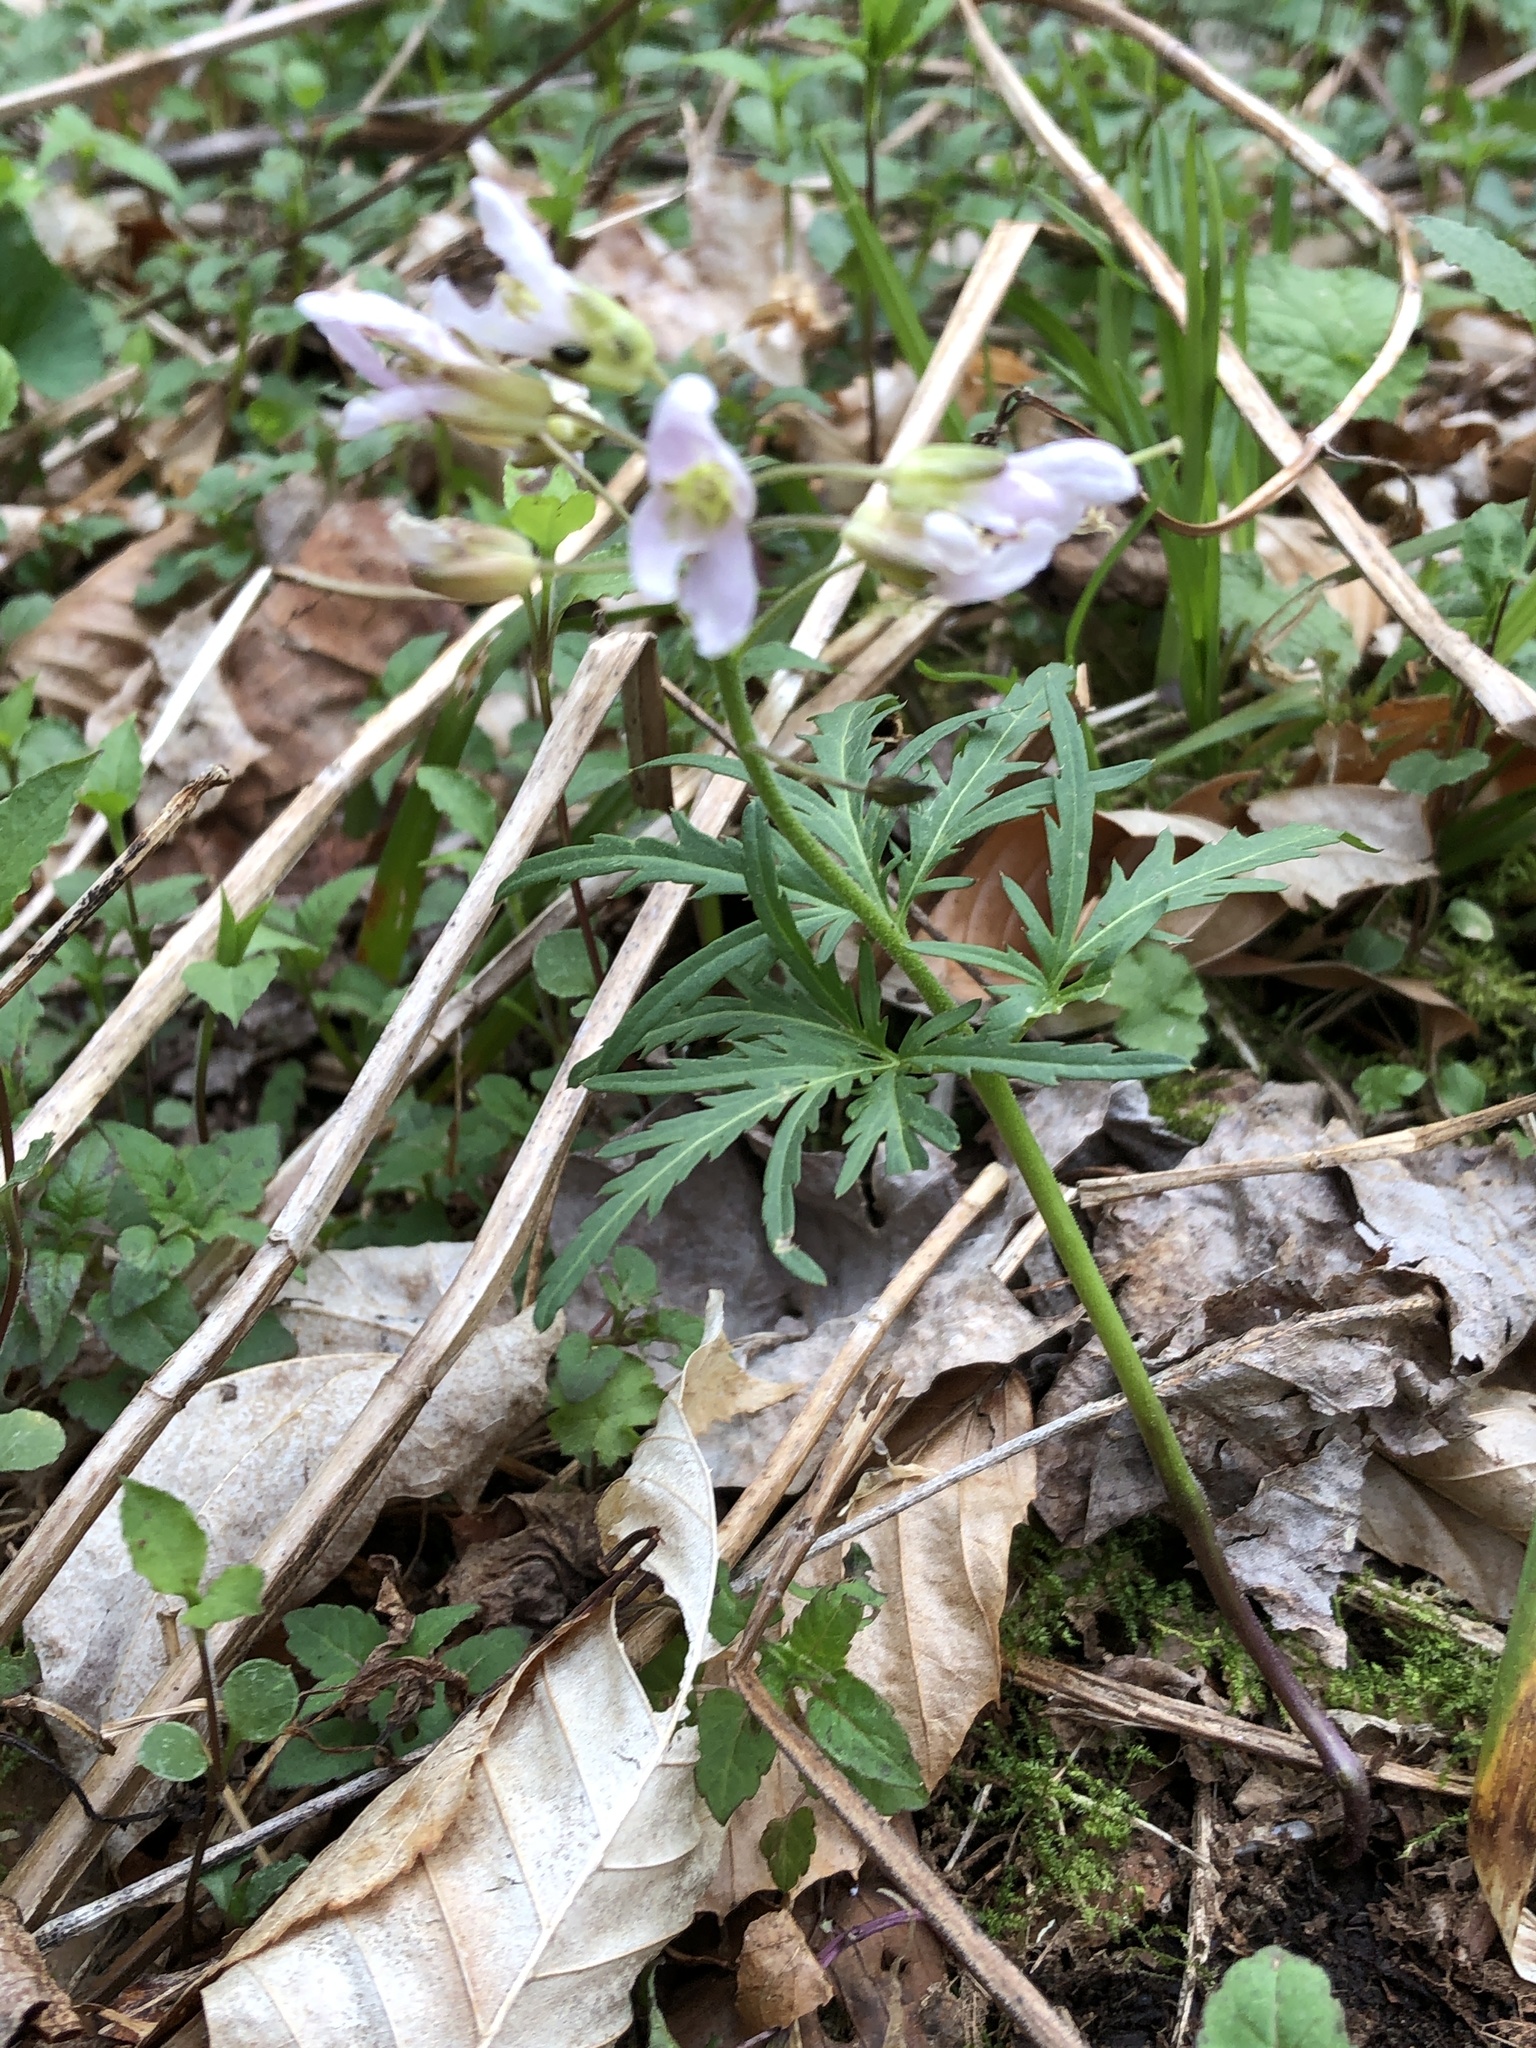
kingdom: Plantae
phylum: Tracheophyta
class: Magnoliopsida
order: Brassicales
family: Brassicaceae
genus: Cardamine
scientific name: Cardamine concatenata
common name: Cut-leaf toothcup
